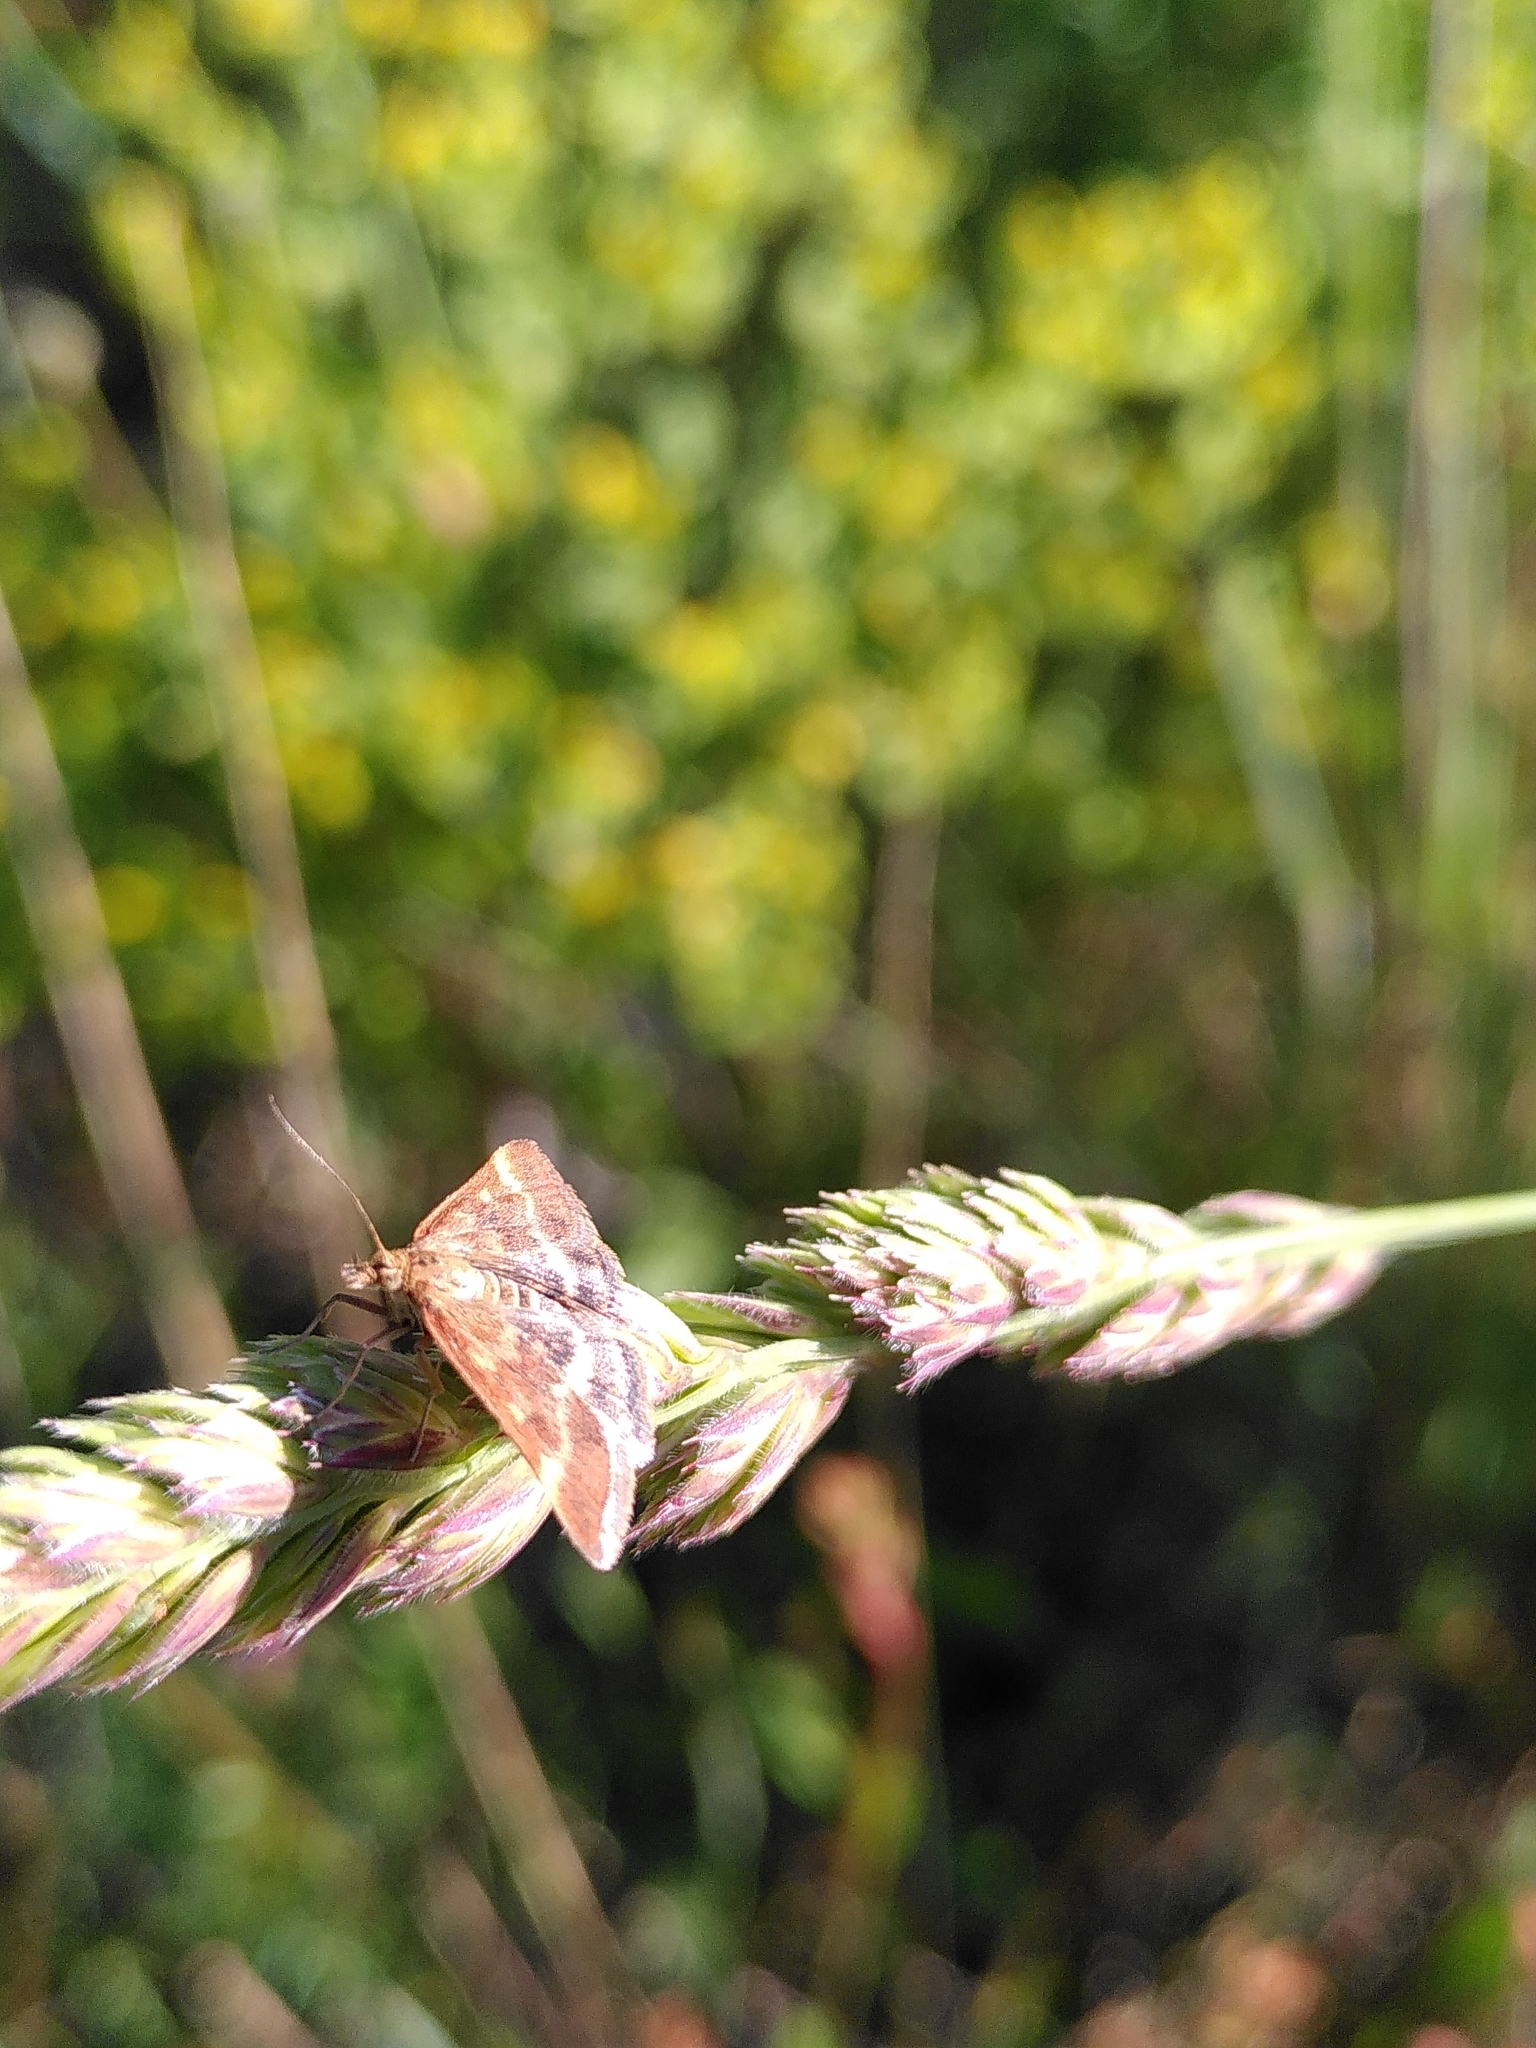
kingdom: Animalia
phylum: Arthropoda
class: Insecta
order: Lepidoptera
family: Crambidae
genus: Pyrausta
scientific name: Pyrausta despicata
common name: Straw-barred pearl
